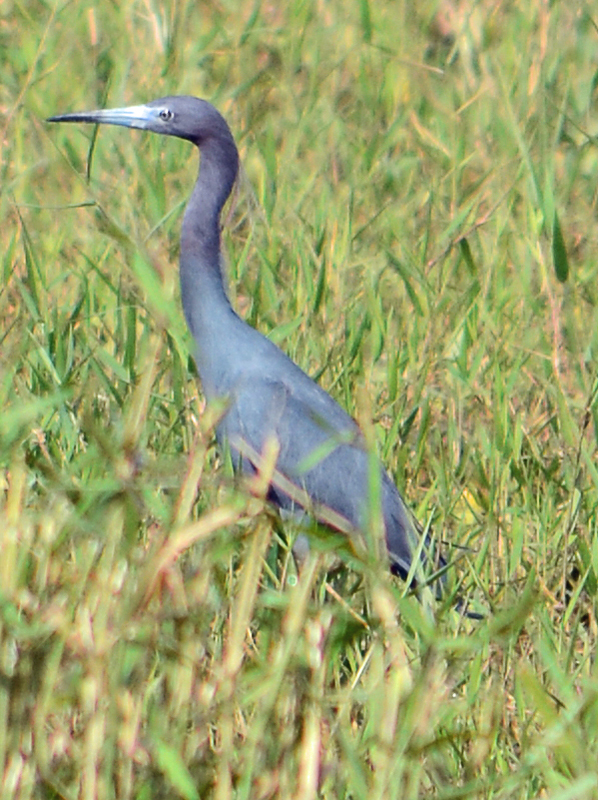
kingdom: Animalia
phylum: Chordata
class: Aves
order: Pelecaniformes
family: Ardeidae
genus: Egretta
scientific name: Egretta caerulea
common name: Little blue heron
